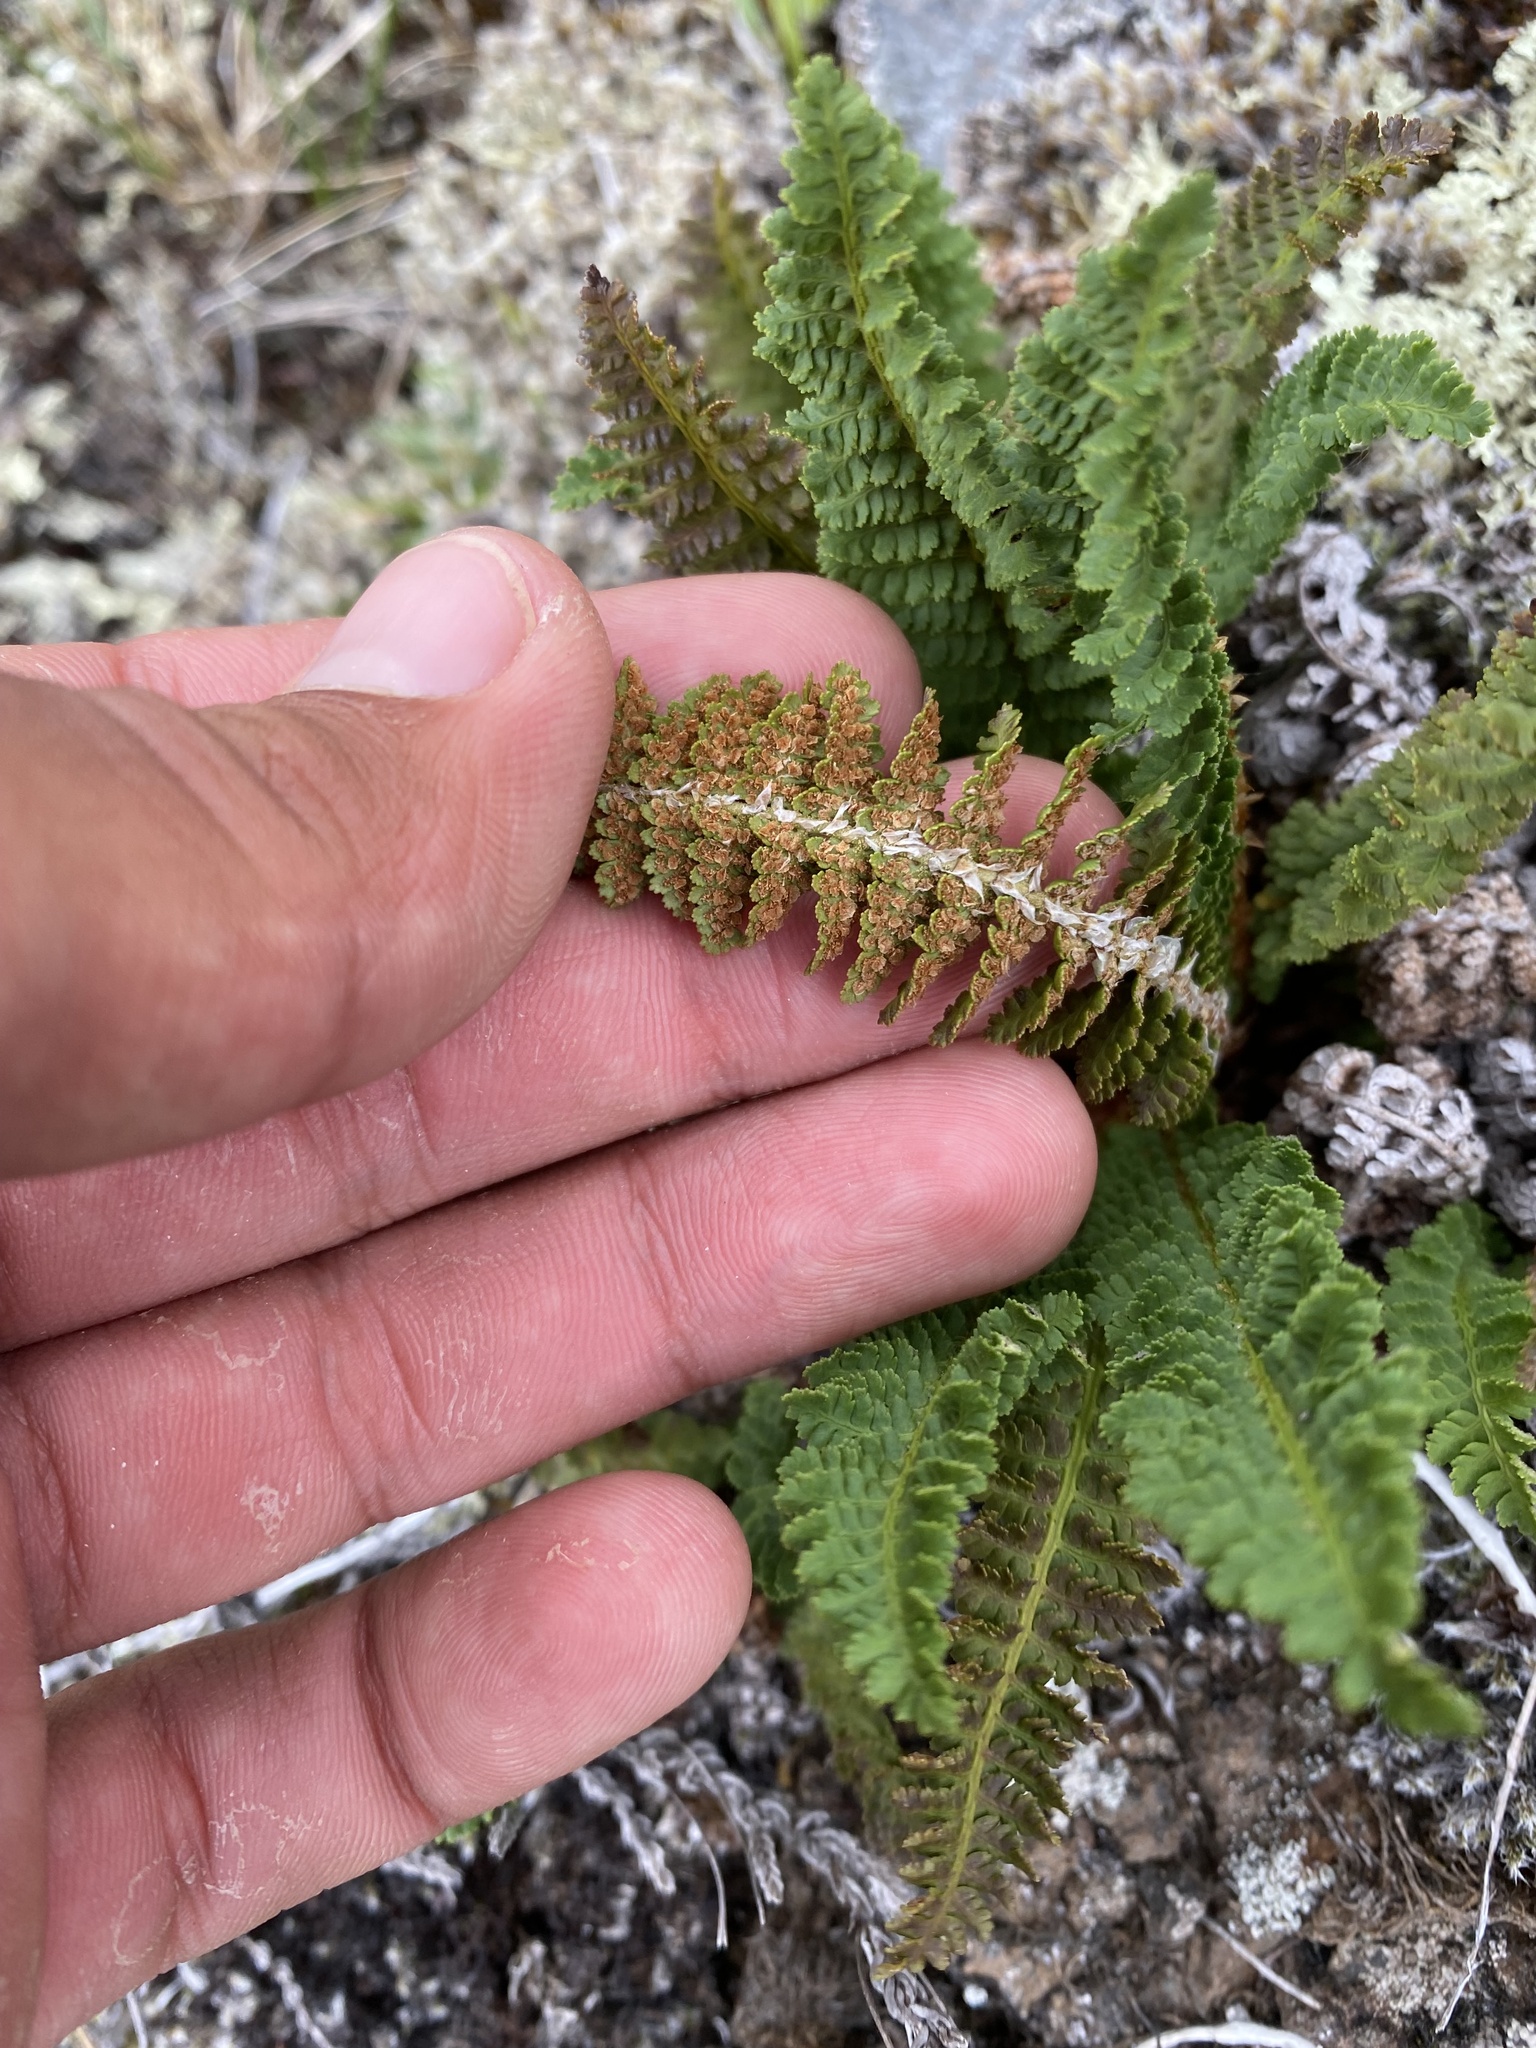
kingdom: Plantae
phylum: Tracheophyta
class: Polypodiopsida
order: Polypodiales
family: Dryopteridaceae
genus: Dryopteris
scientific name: Dryopteris fragrans
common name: Fragrant wood fern
